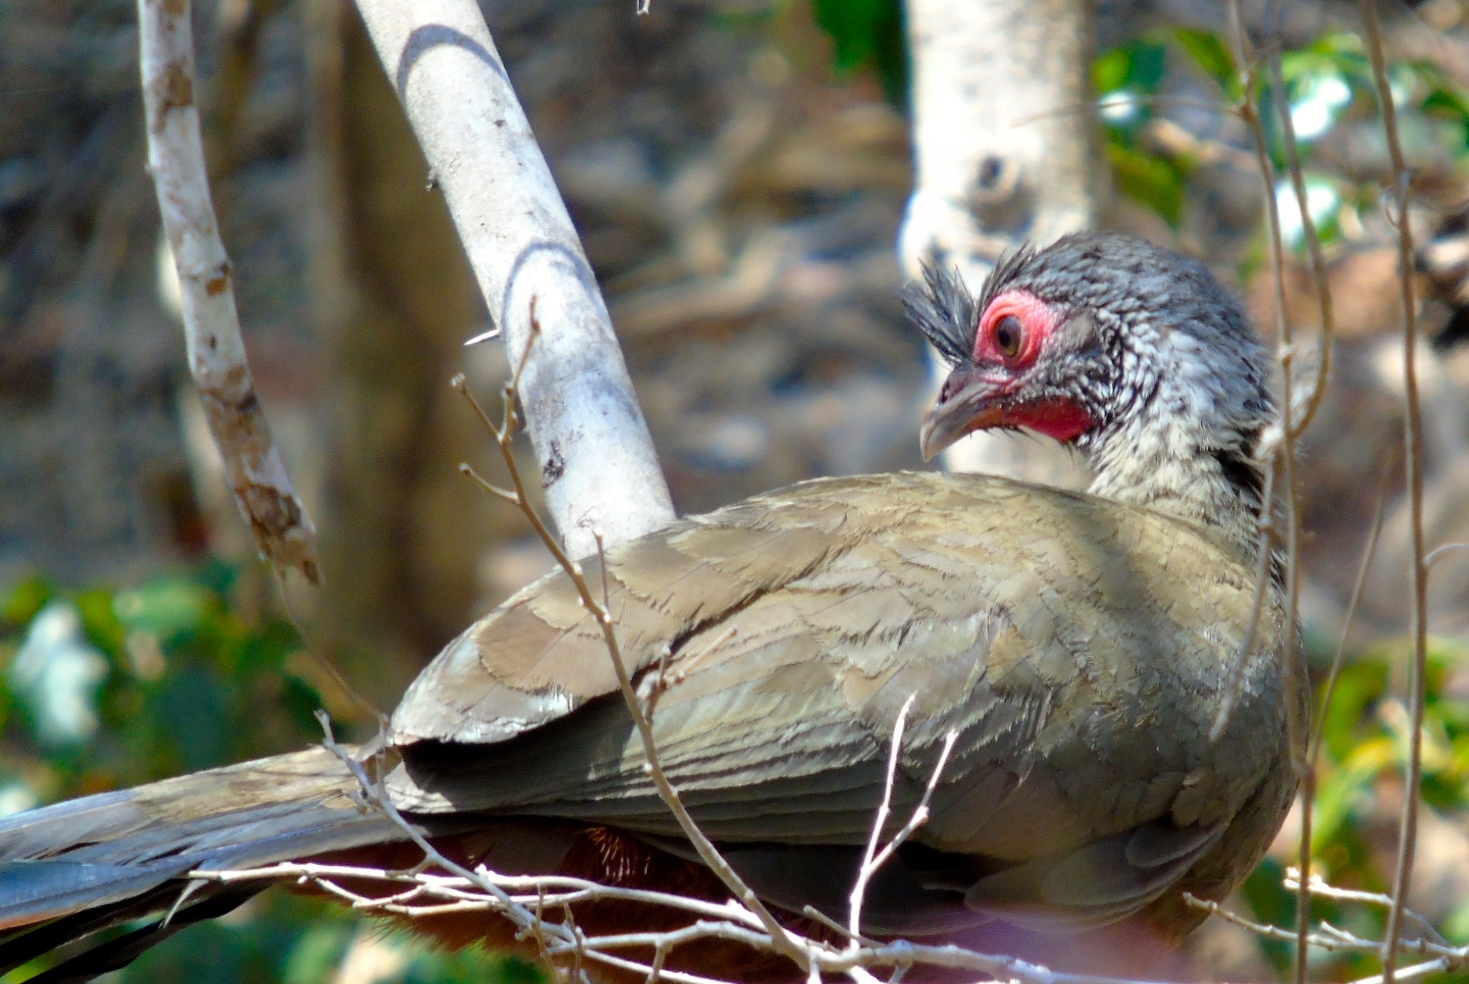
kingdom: Animalia
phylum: Chordata
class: Aves
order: Galliformes
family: Cracidae
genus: Ortalis
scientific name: Ortalis wagleri
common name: Rufous-bellied chachalaca
